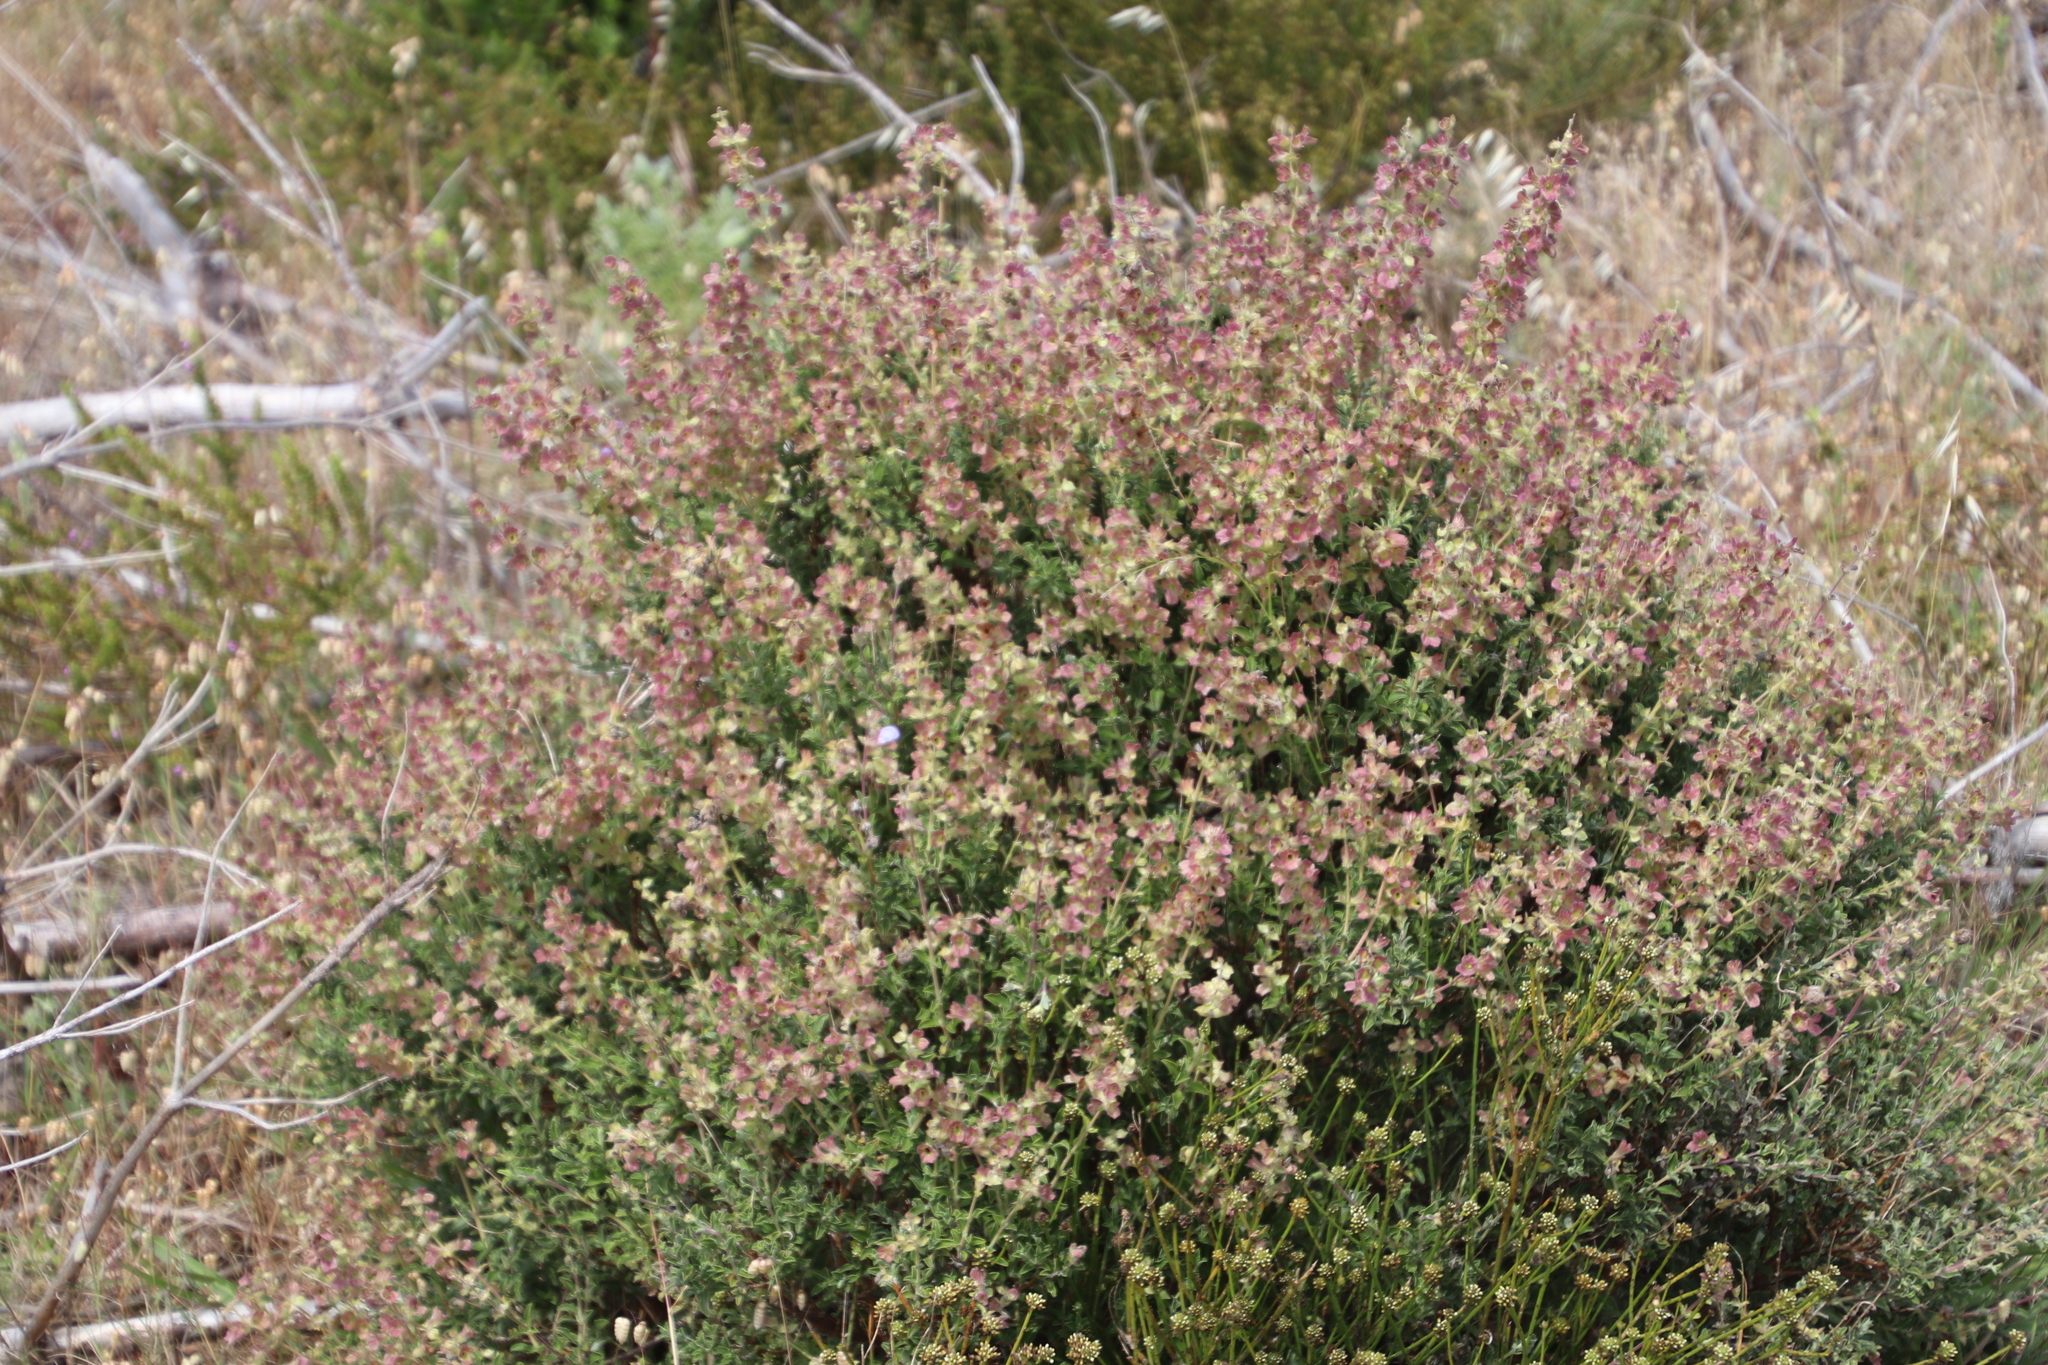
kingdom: Plantae
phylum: Tracheophyta
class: Magnoliopsida
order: Lamiales
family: Lamiaceae
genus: Salvia
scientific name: Salvia africana
